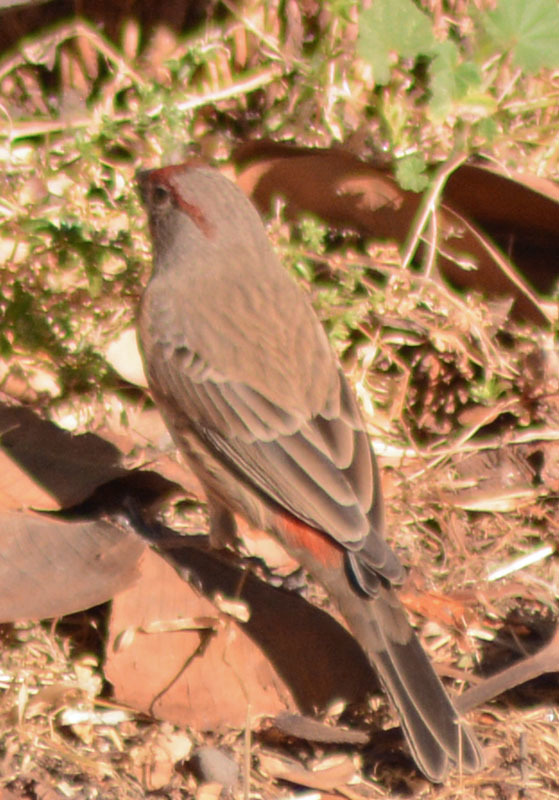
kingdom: Animalia
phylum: Chordata
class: Aves
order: Passeriformes
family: Fringillidae
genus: Haemorhous
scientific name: Haemorhous mexicanus
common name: House finch
